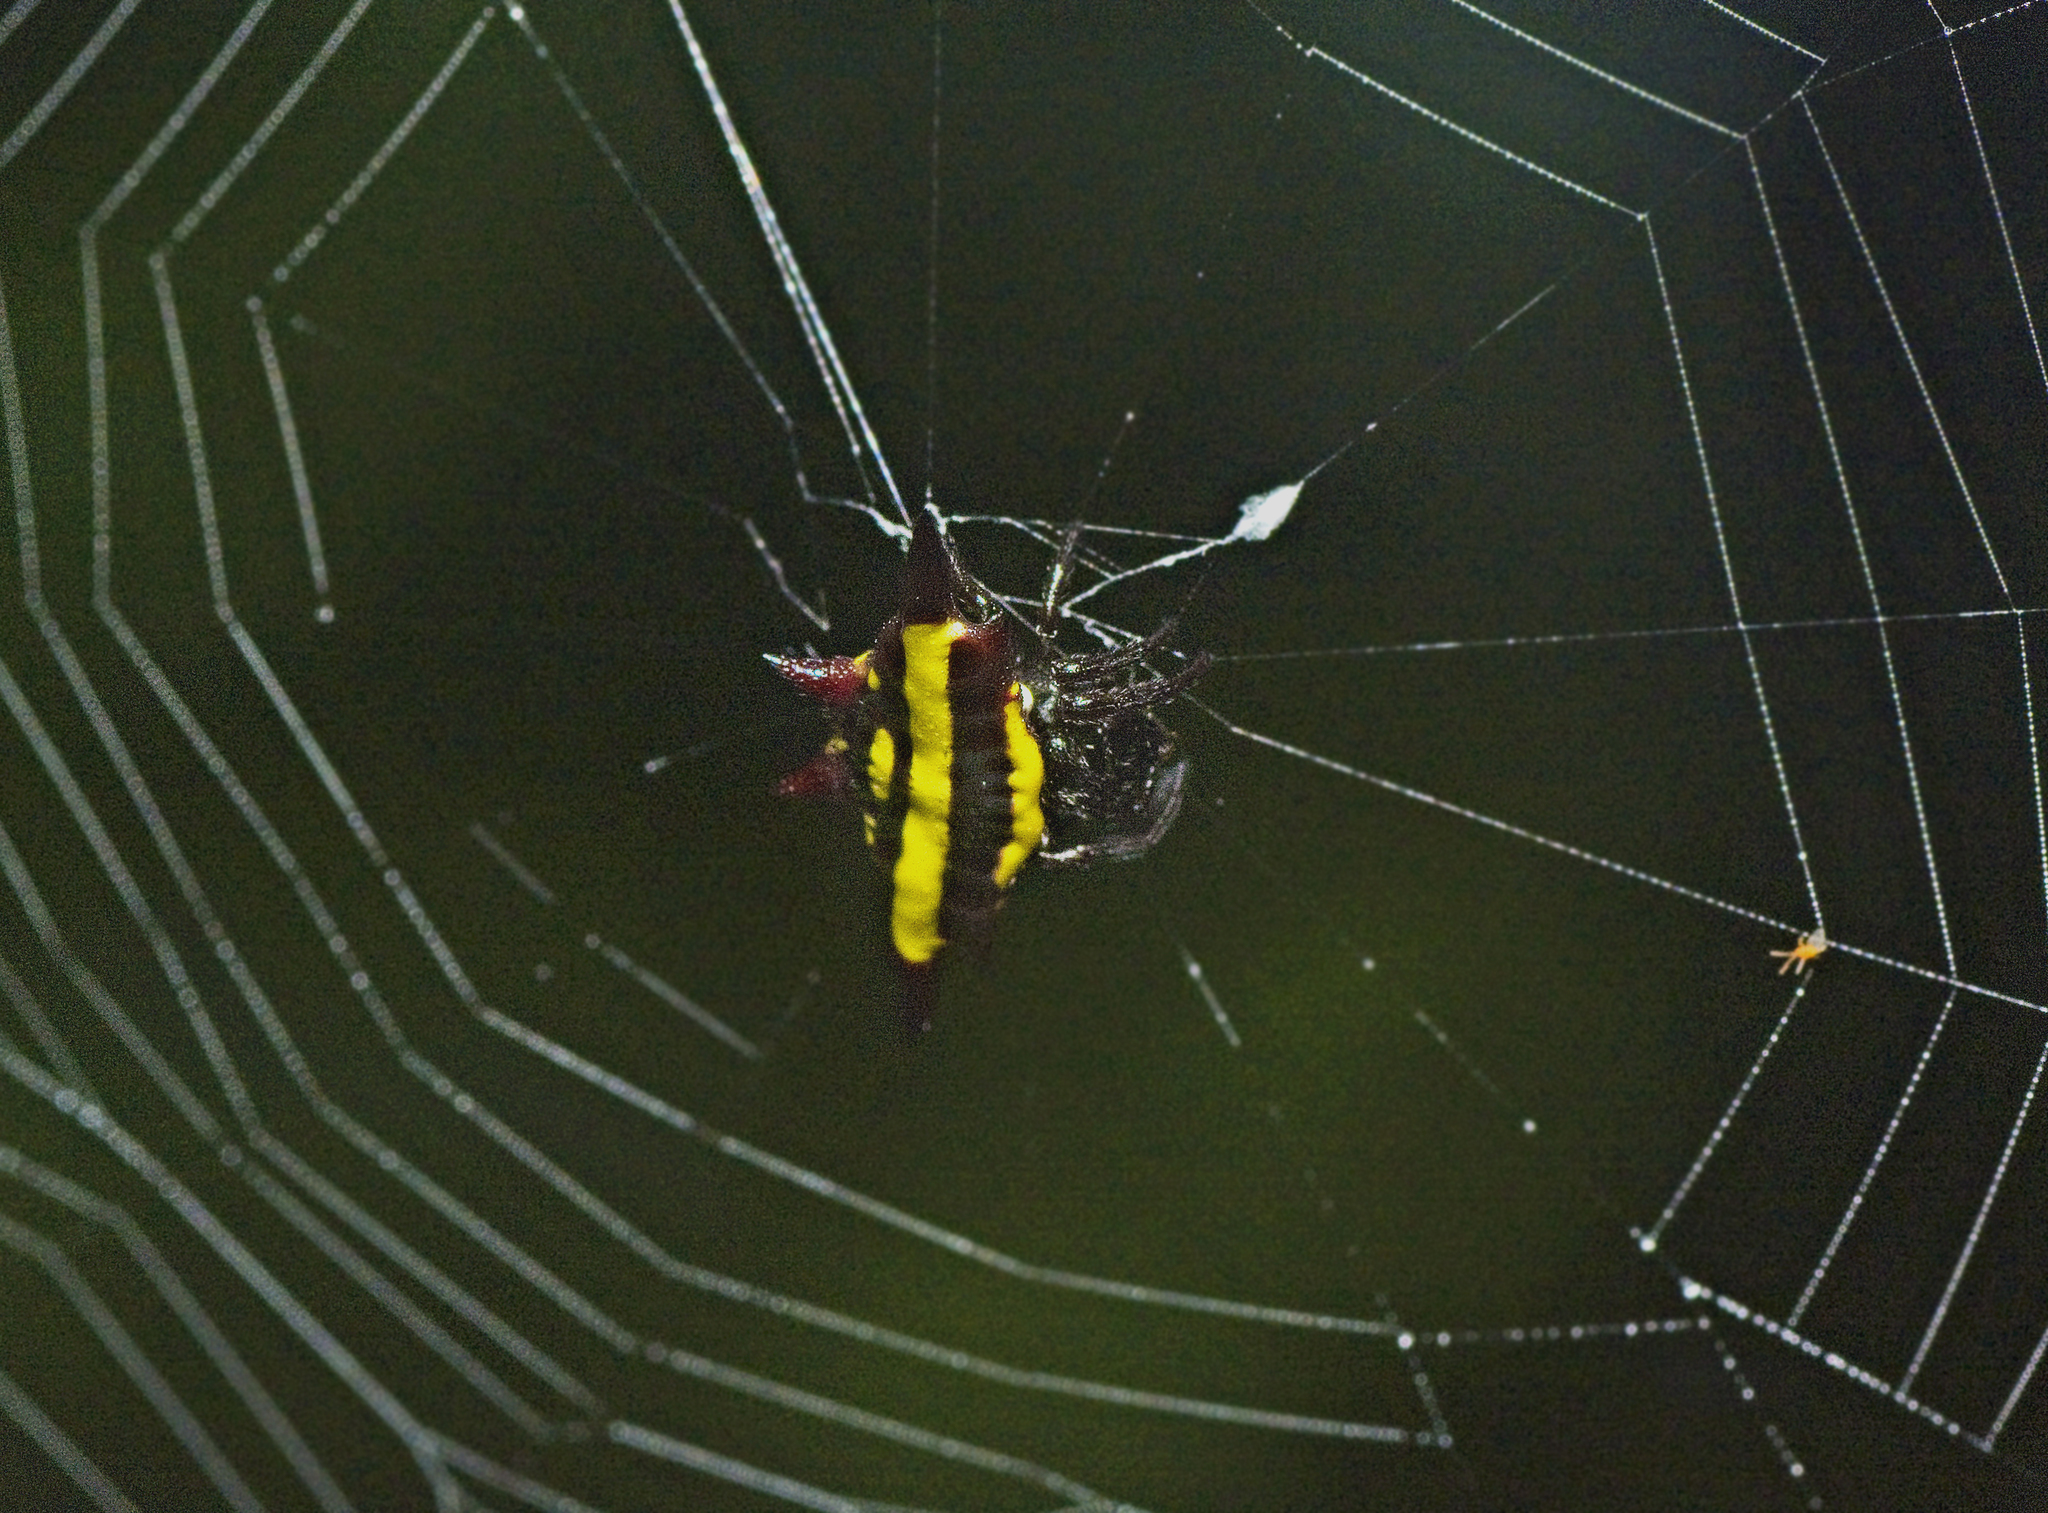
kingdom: Animalia
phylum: Arthropoda
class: Arachnida
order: Araneae
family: Araneidae
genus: Gasteracantha
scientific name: Gasteracantha fornicata
